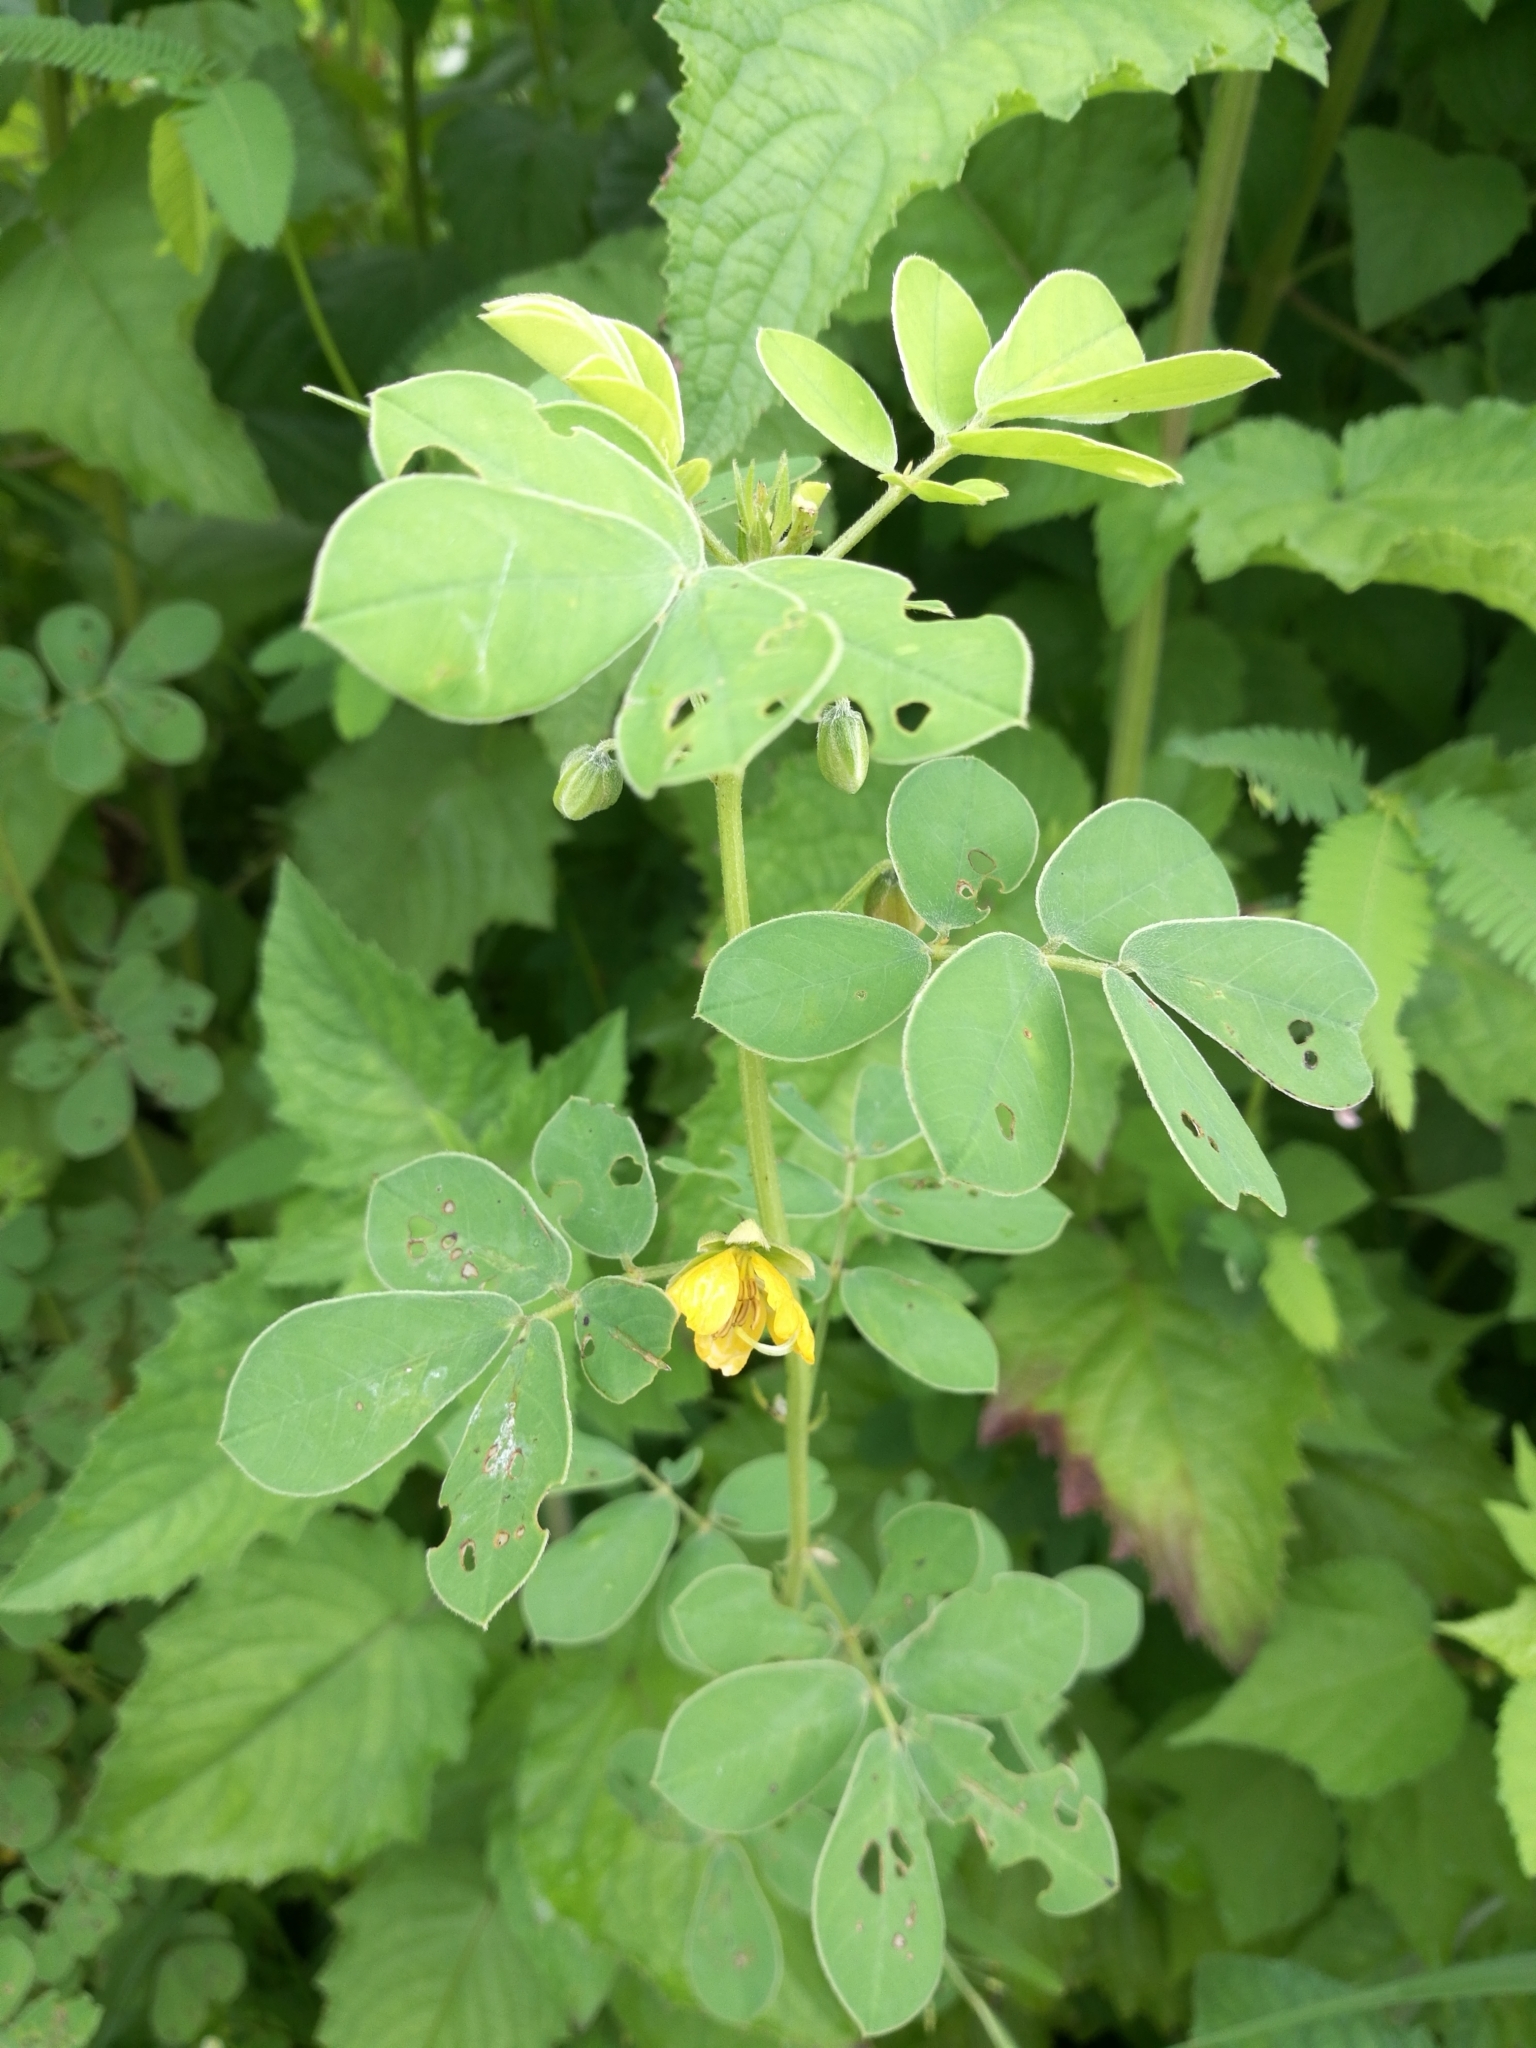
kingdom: Plantae
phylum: Tracheophyta
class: Magnoliopsida
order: Fabales
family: Fabaceae
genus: Senna
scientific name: Senna obtusifolia
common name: Java-bean
